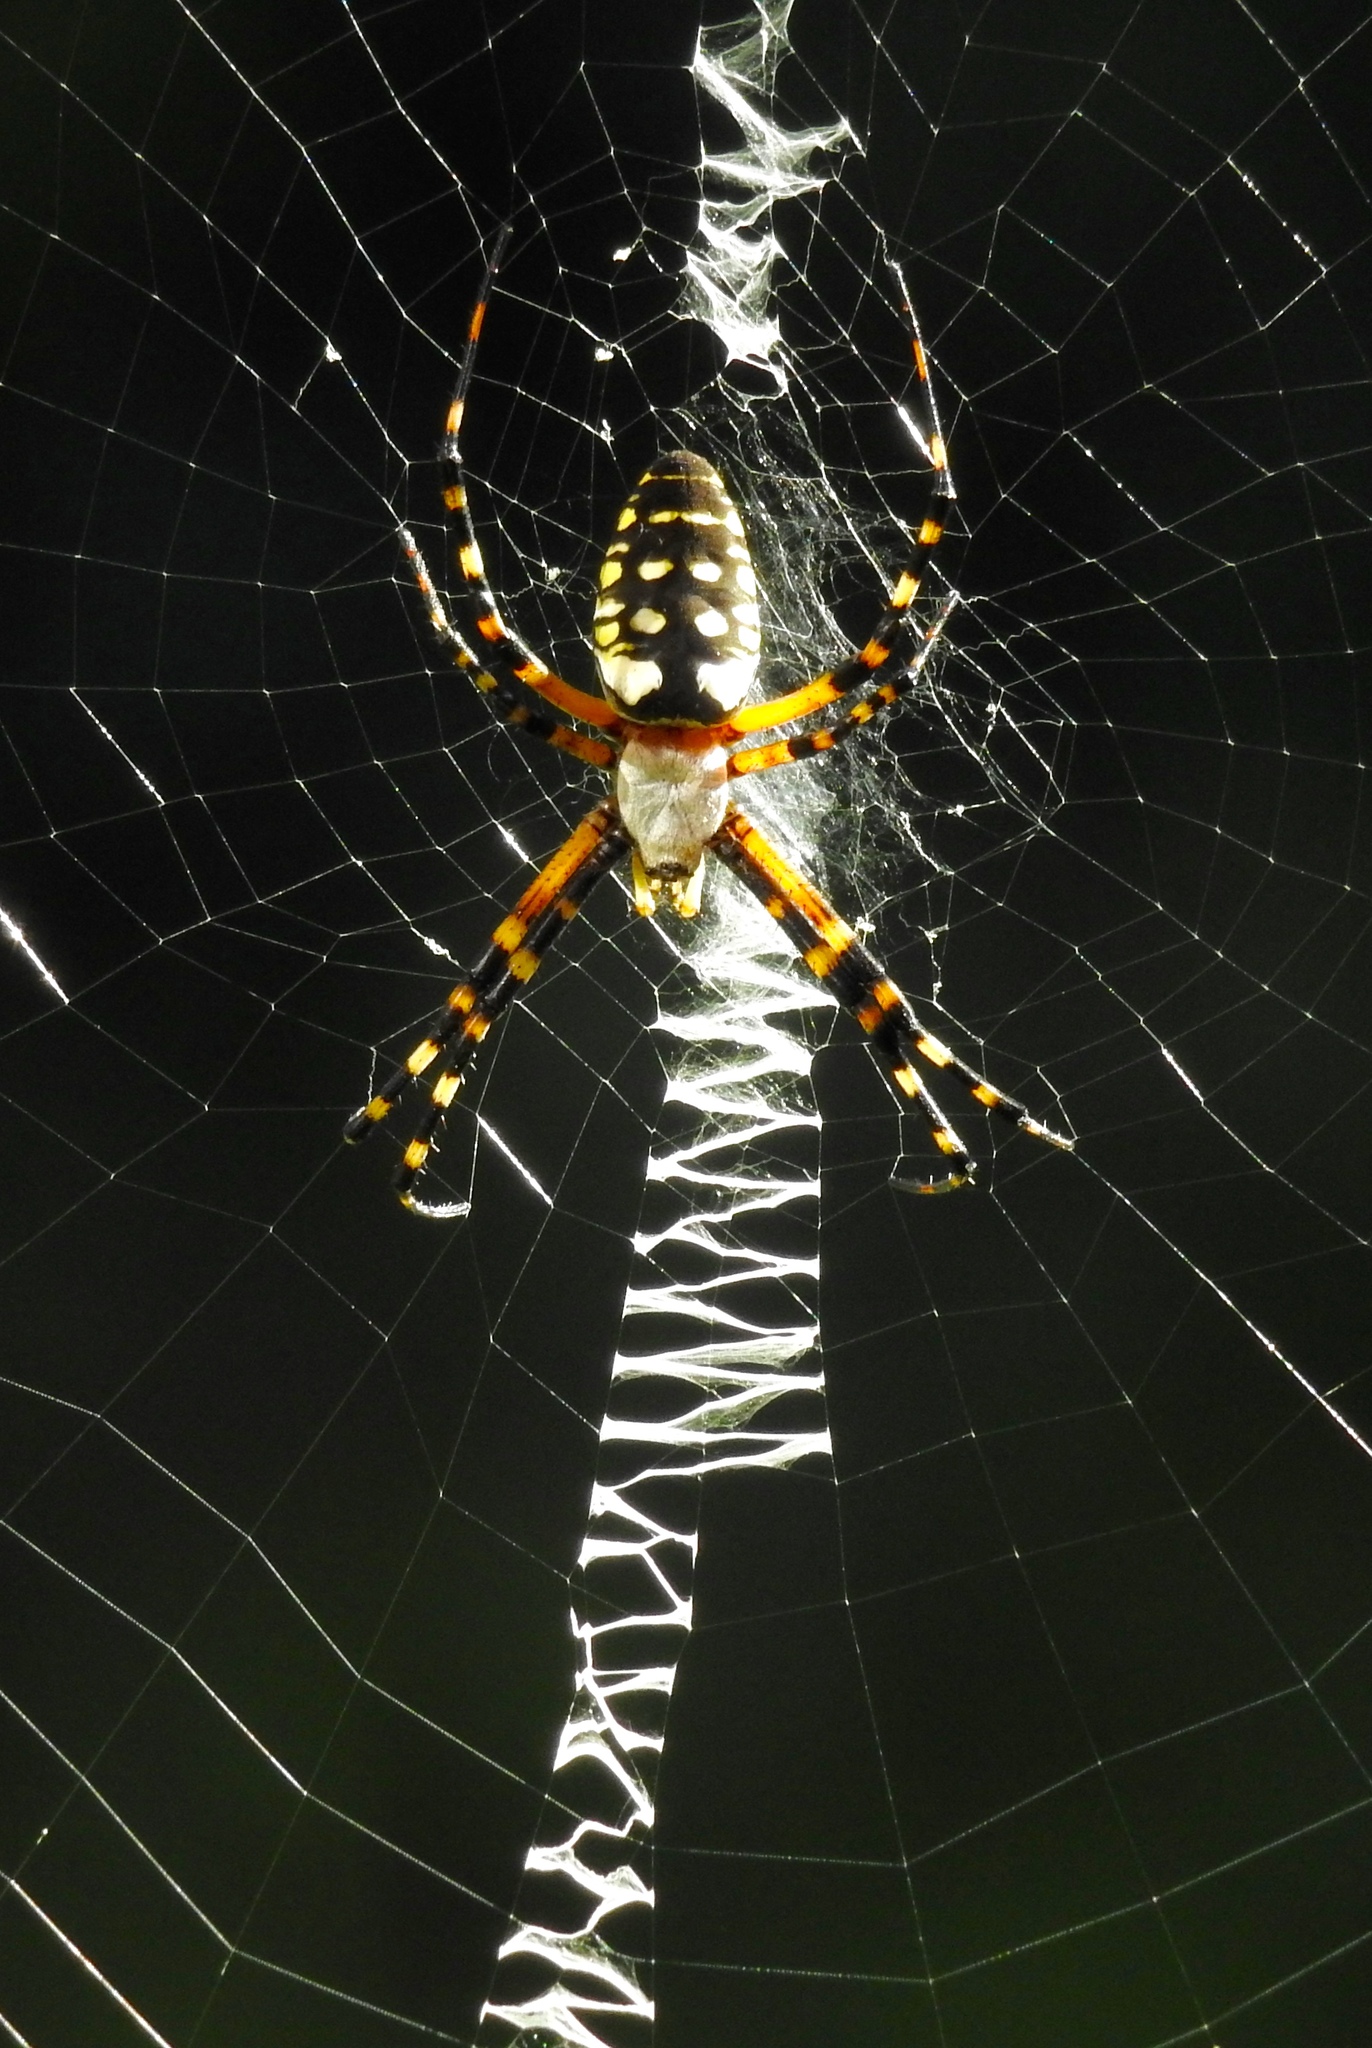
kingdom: Animalia
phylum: Arthropoda
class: Arachnida
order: Araneae
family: Araneidae
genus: Argiope
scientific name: Argiope aurantia
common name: Orb weavers
